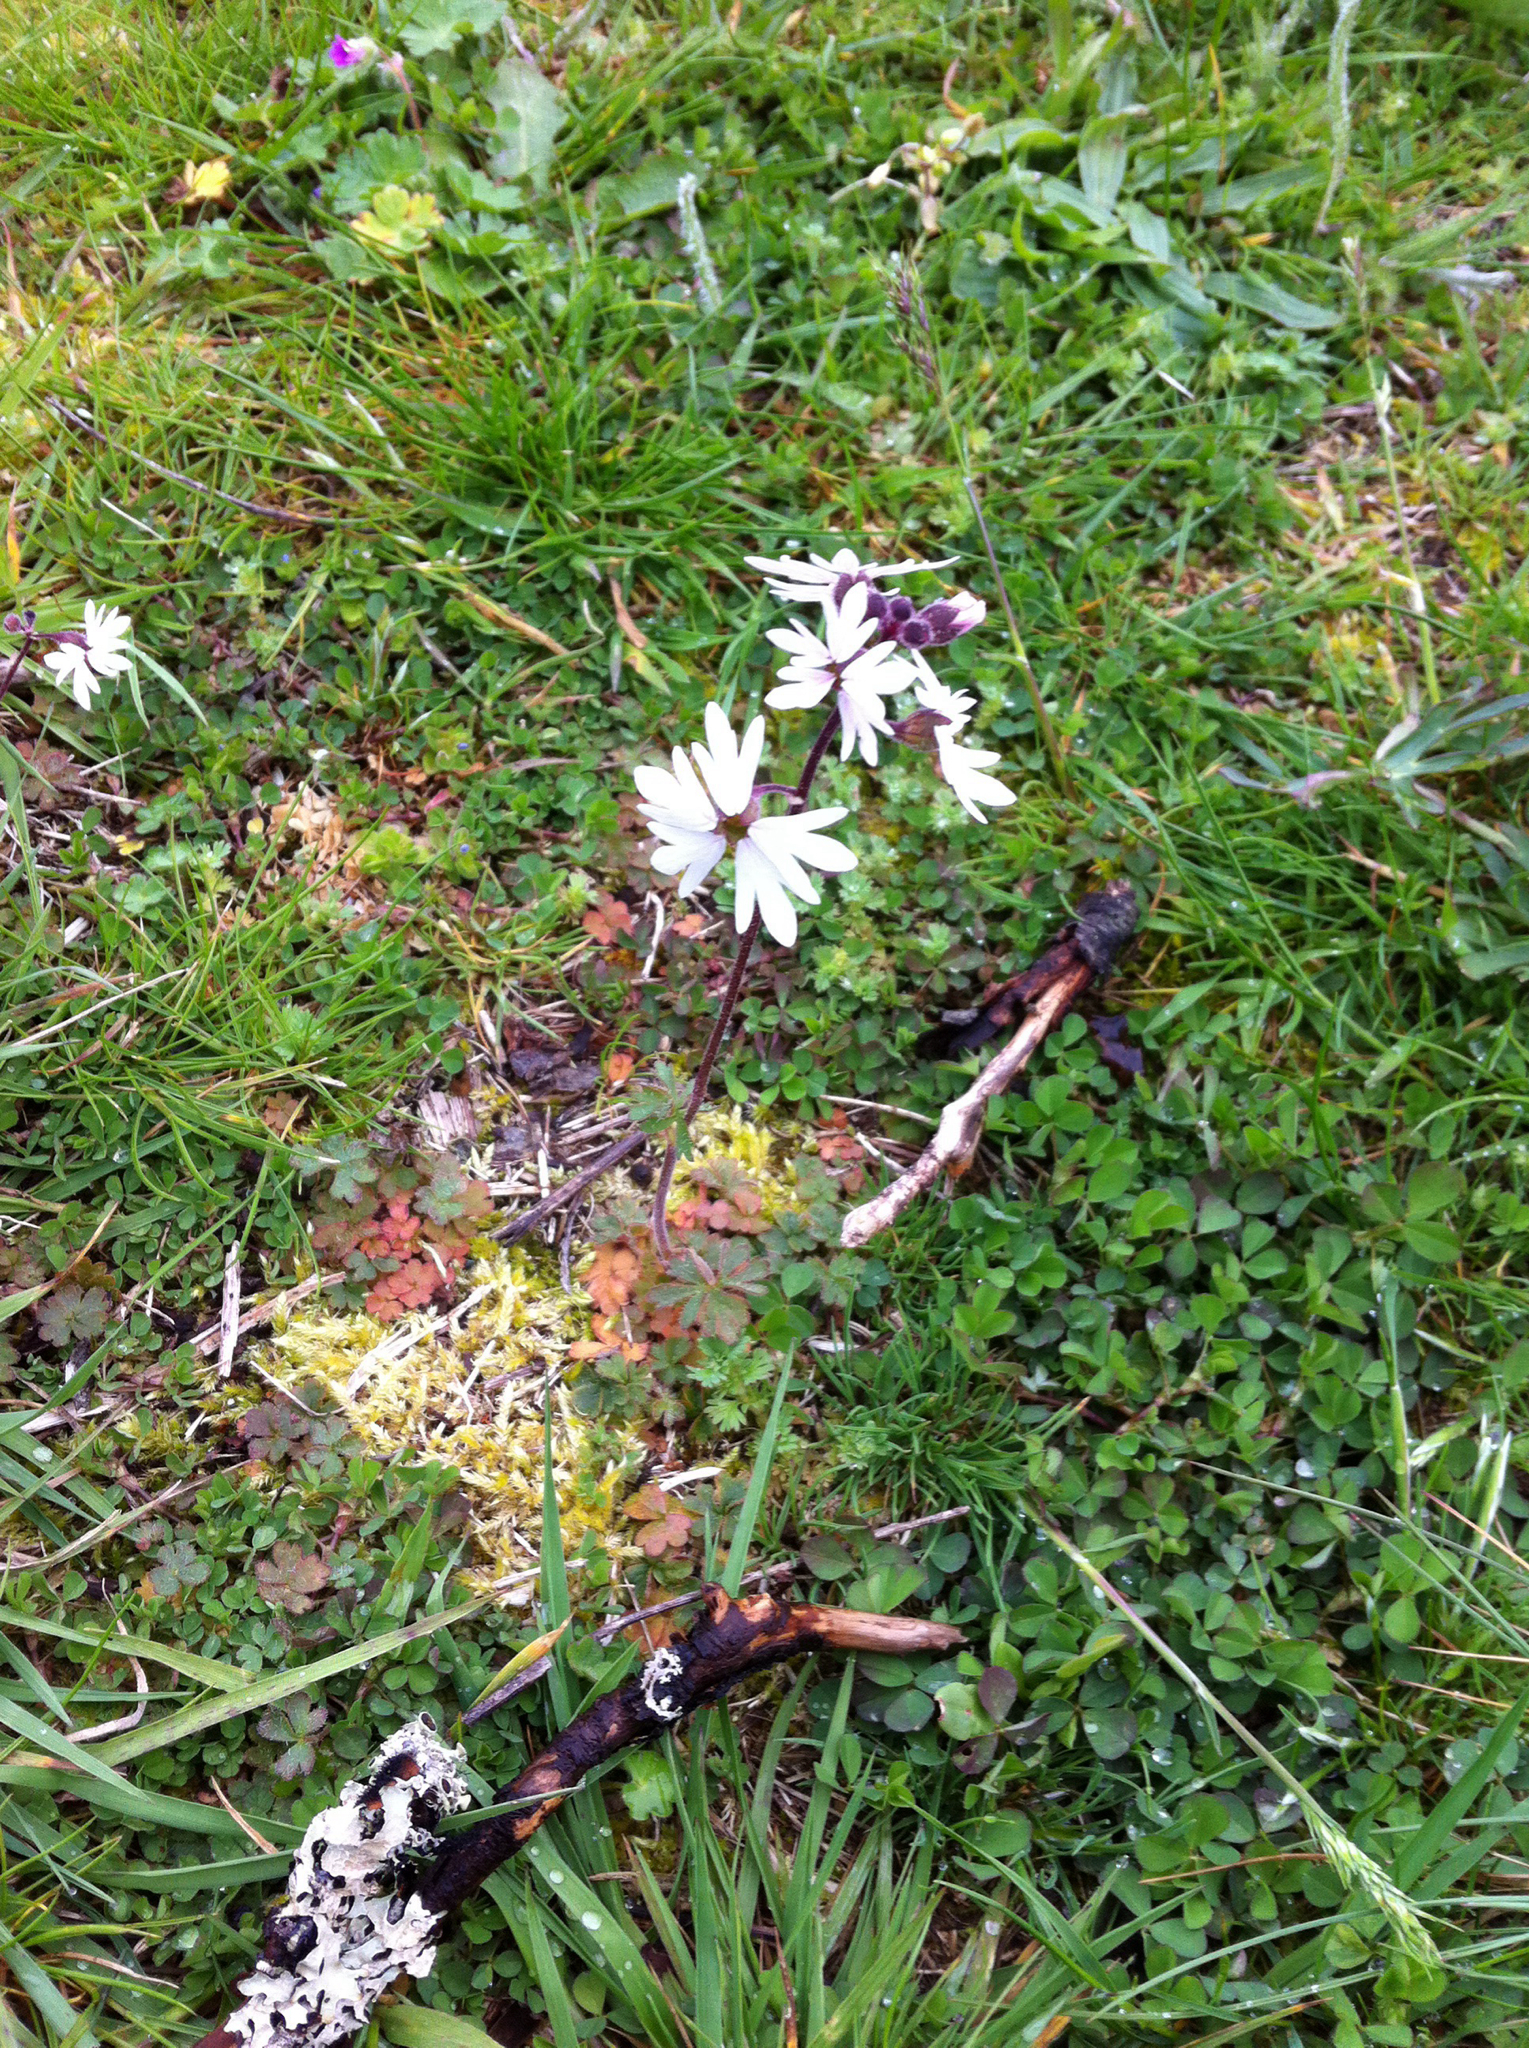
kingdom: Plantae
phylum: Tracheophyta
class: Magnoliopsida
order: Saxifragales
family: Saxifragaceae
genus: Lithophragma
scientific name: Lithophragma parviflorum
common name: Small-flowered fringe-cup
